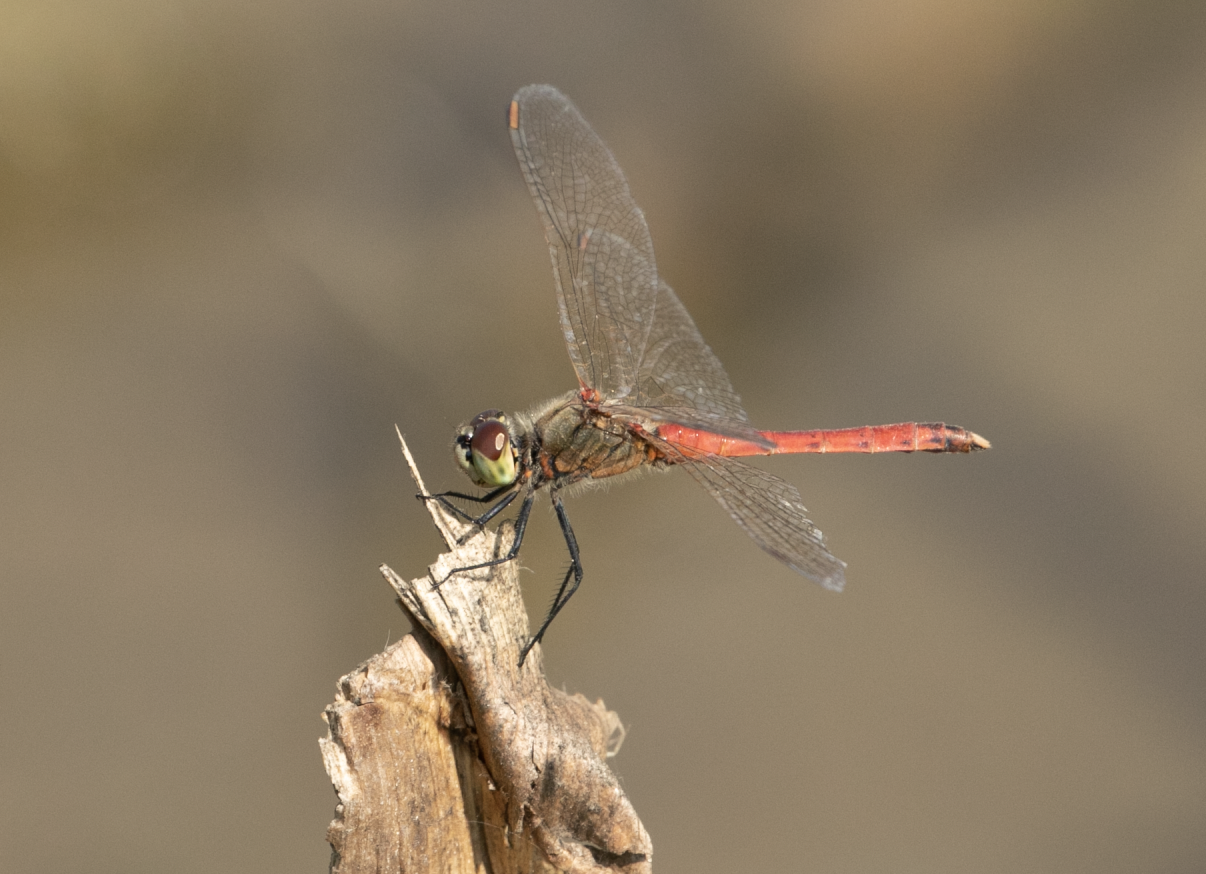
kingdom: Animalia
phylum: Arthropoda
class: Insecta
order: Odonata
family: Libellulidae
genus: Sympetrum
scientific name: Sympetrum depressiusculum
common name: Spotted darter
